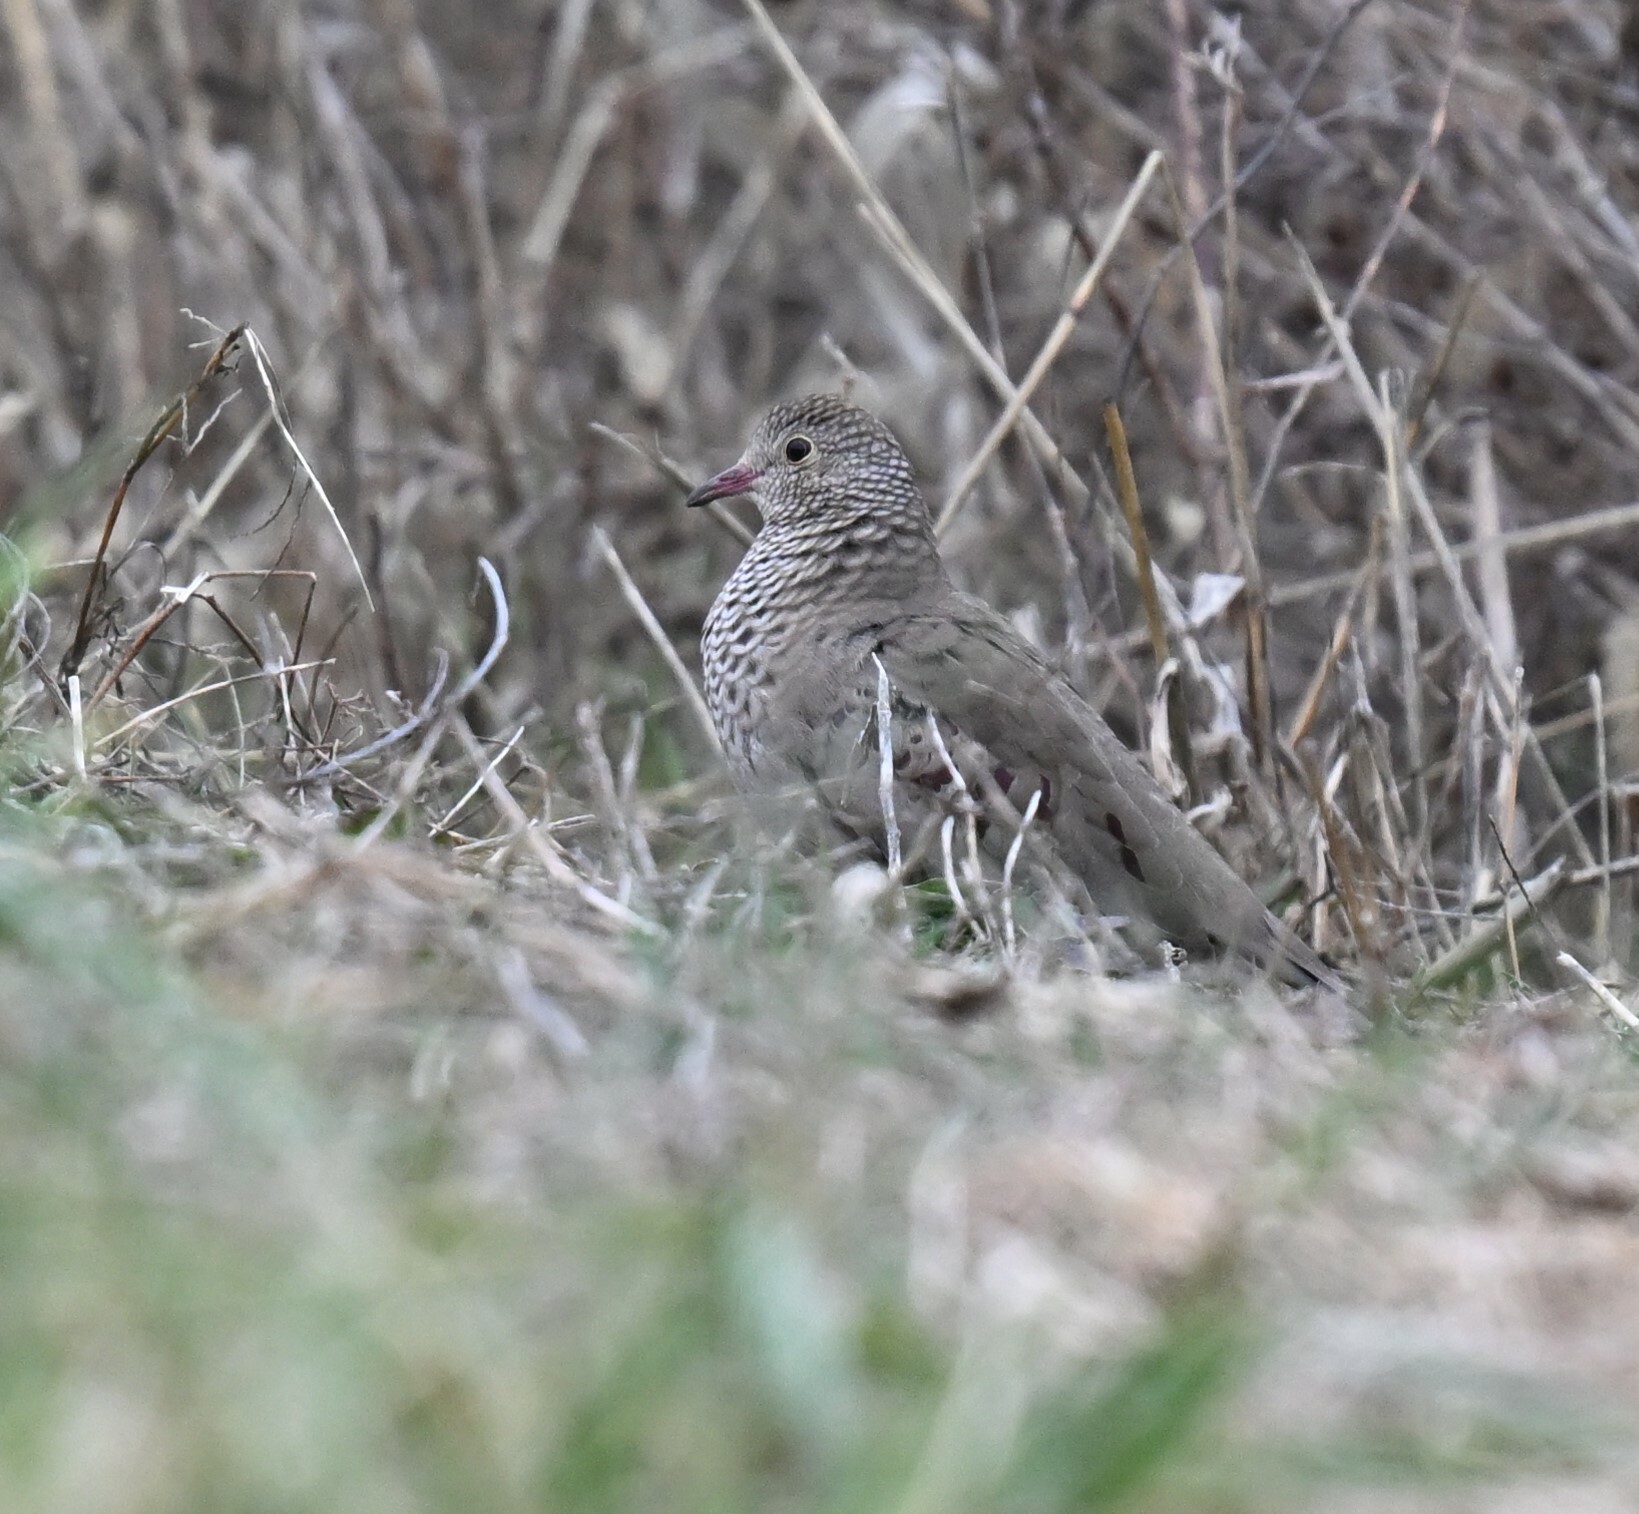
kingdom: Animalia
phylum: Chordata
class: Aves
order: Columbiformes
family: Columbidae
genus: Columbina
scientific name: Columbina passerina
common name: Common ground-dove
